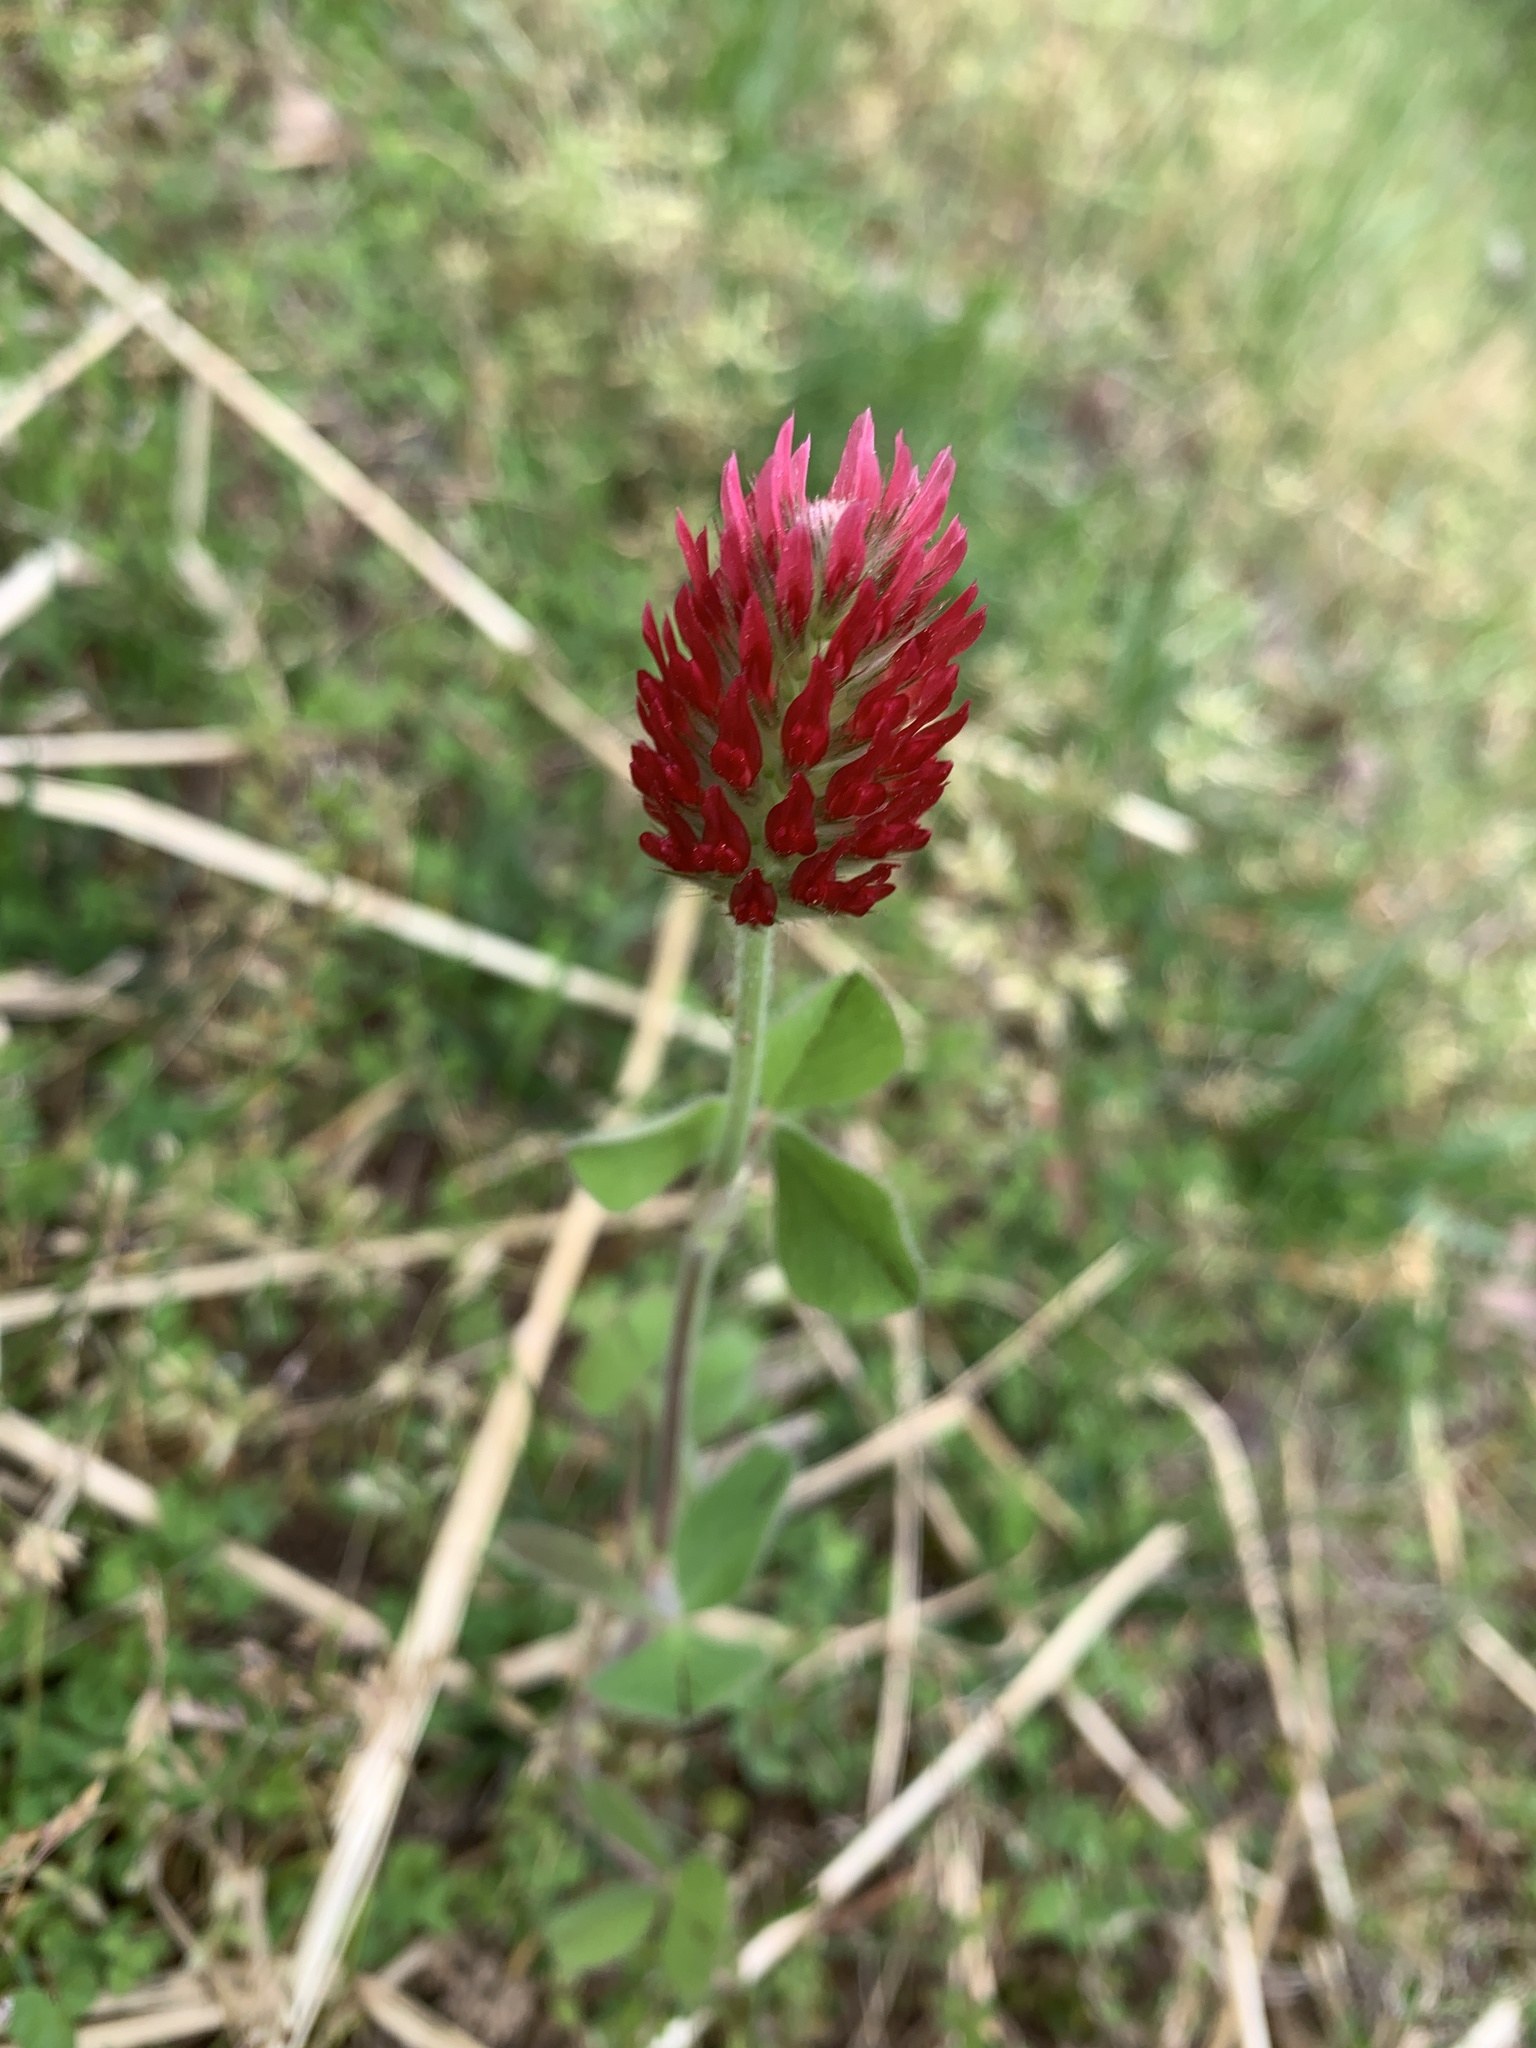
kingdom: Plantae
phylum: Tracheophyta
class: Magnoliopsida
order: Fabales
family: Fabaceae
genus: Trifolium
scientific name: Trifolium incarnatum
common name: Crimson clover
